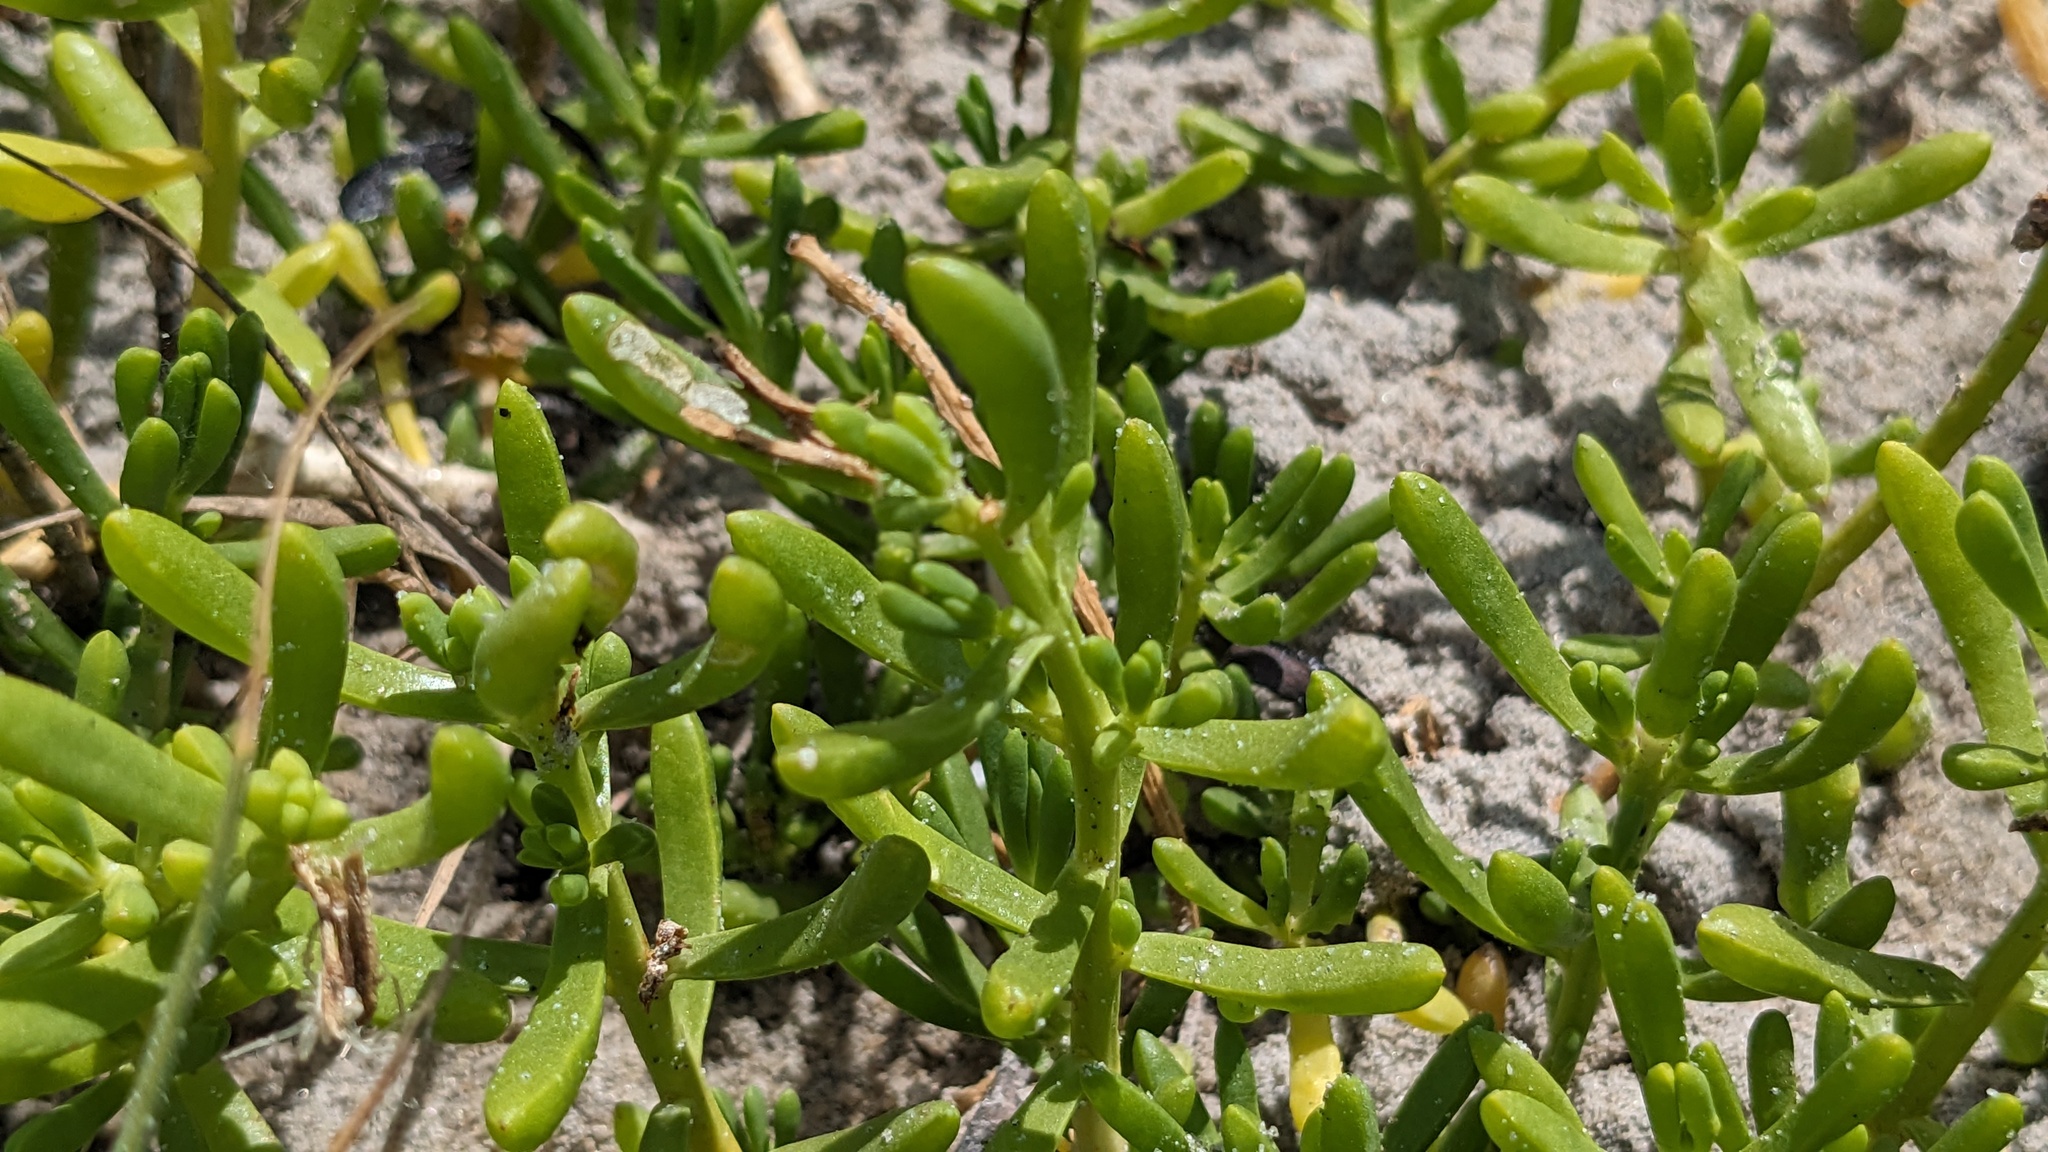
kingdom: Plantae
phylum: Tracheophyta
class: Magnoliopsida
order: Brassicales
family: Bataceae
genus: Batis
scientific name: Batis maritima
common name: Turtleweed
